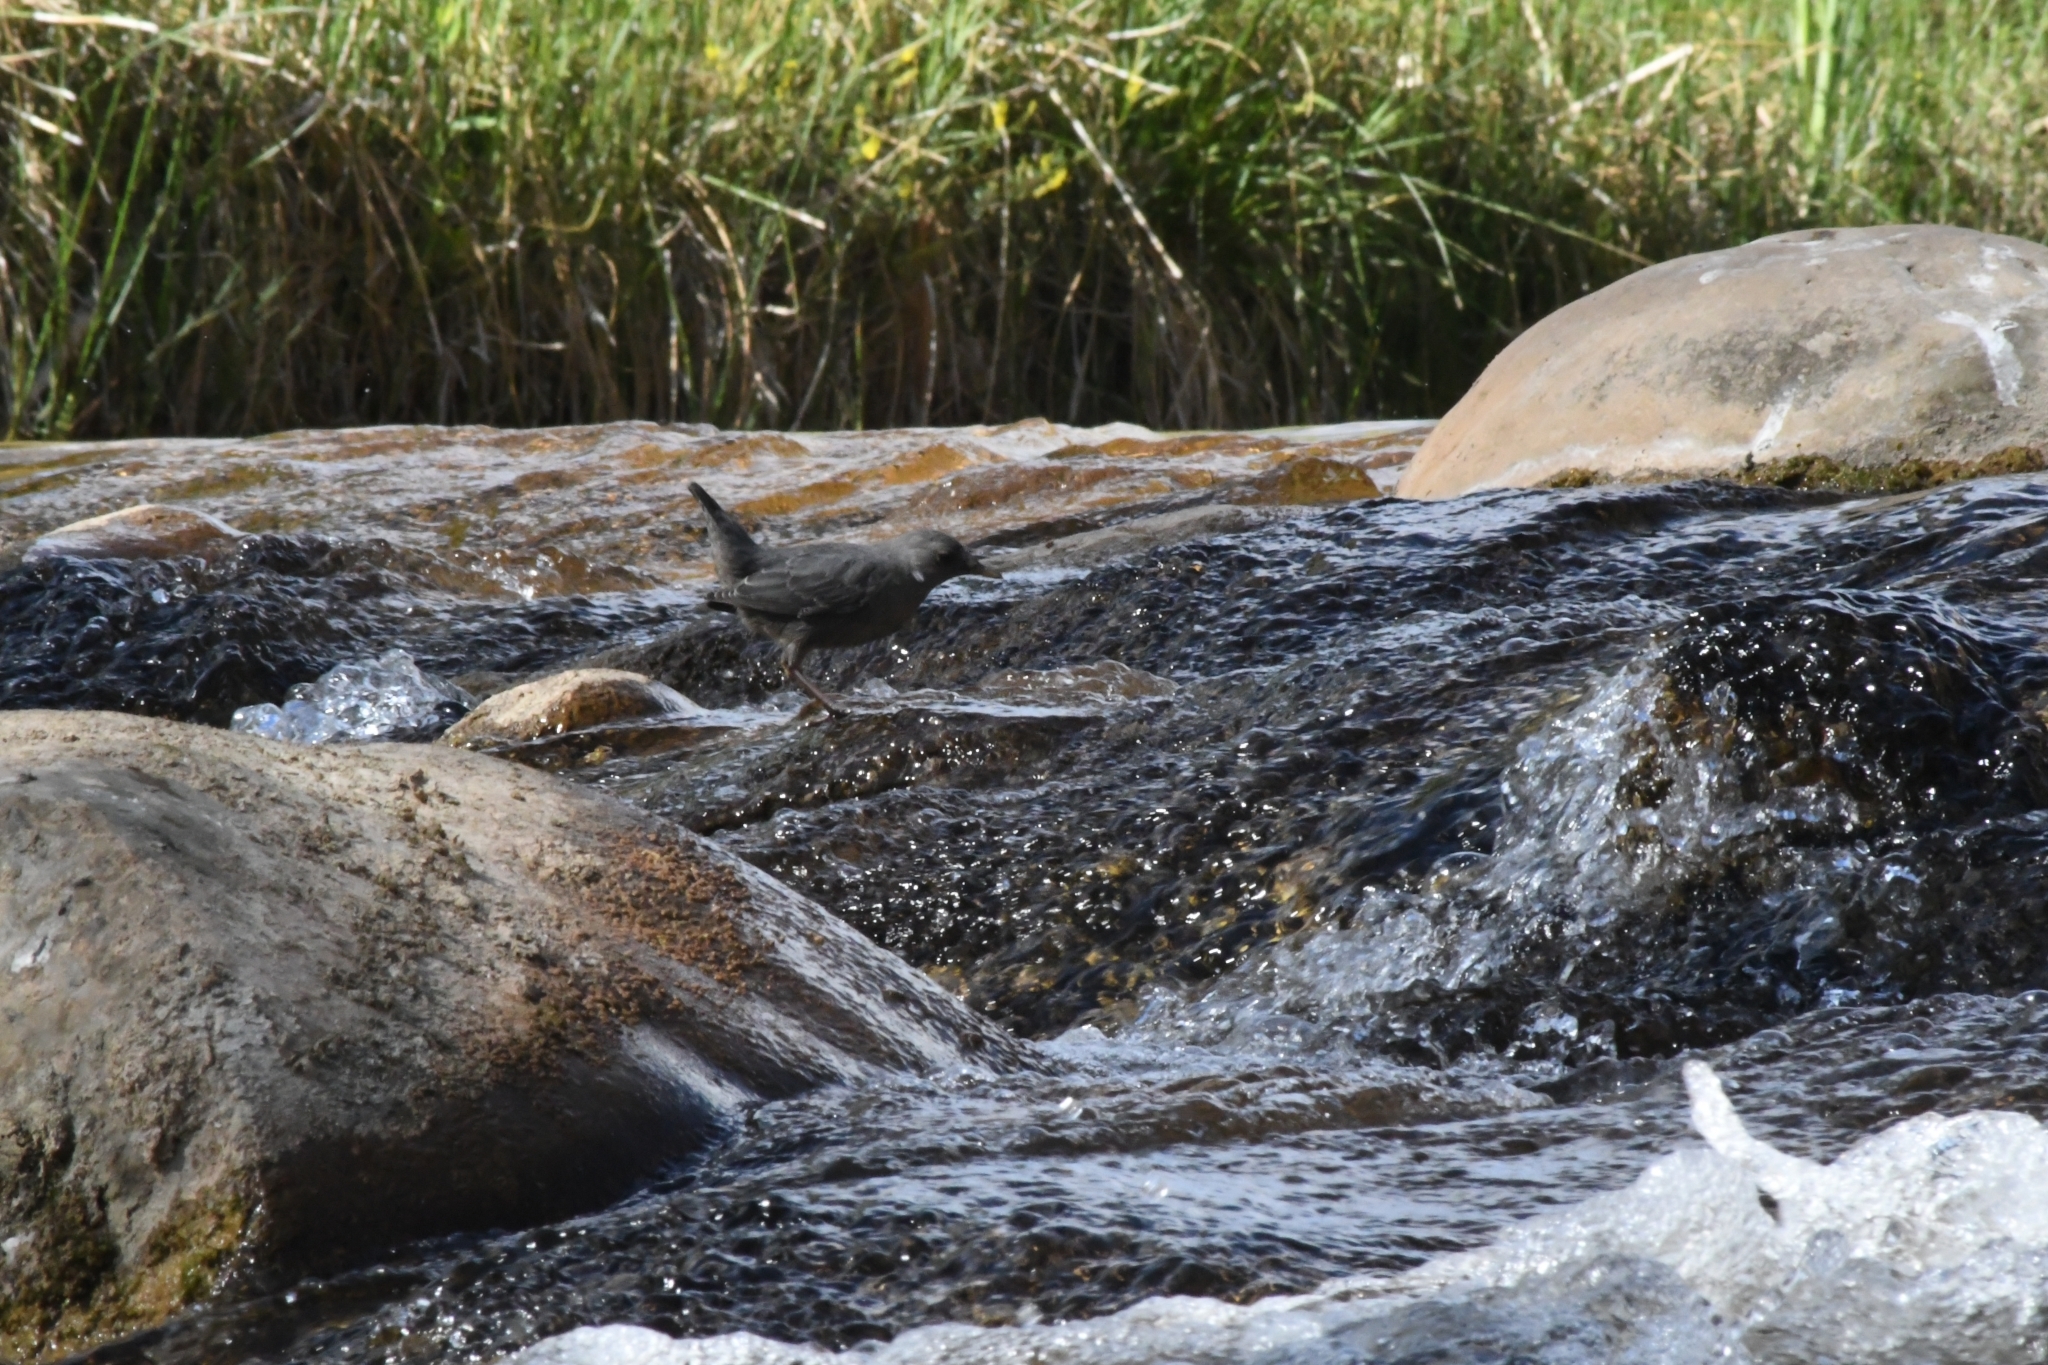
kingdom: Animalia
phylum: Chordata
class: Aves
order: Passeriformes
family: Cinclidae
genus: Cinclus
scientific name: Cinclus mexicanus
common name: American dipper
